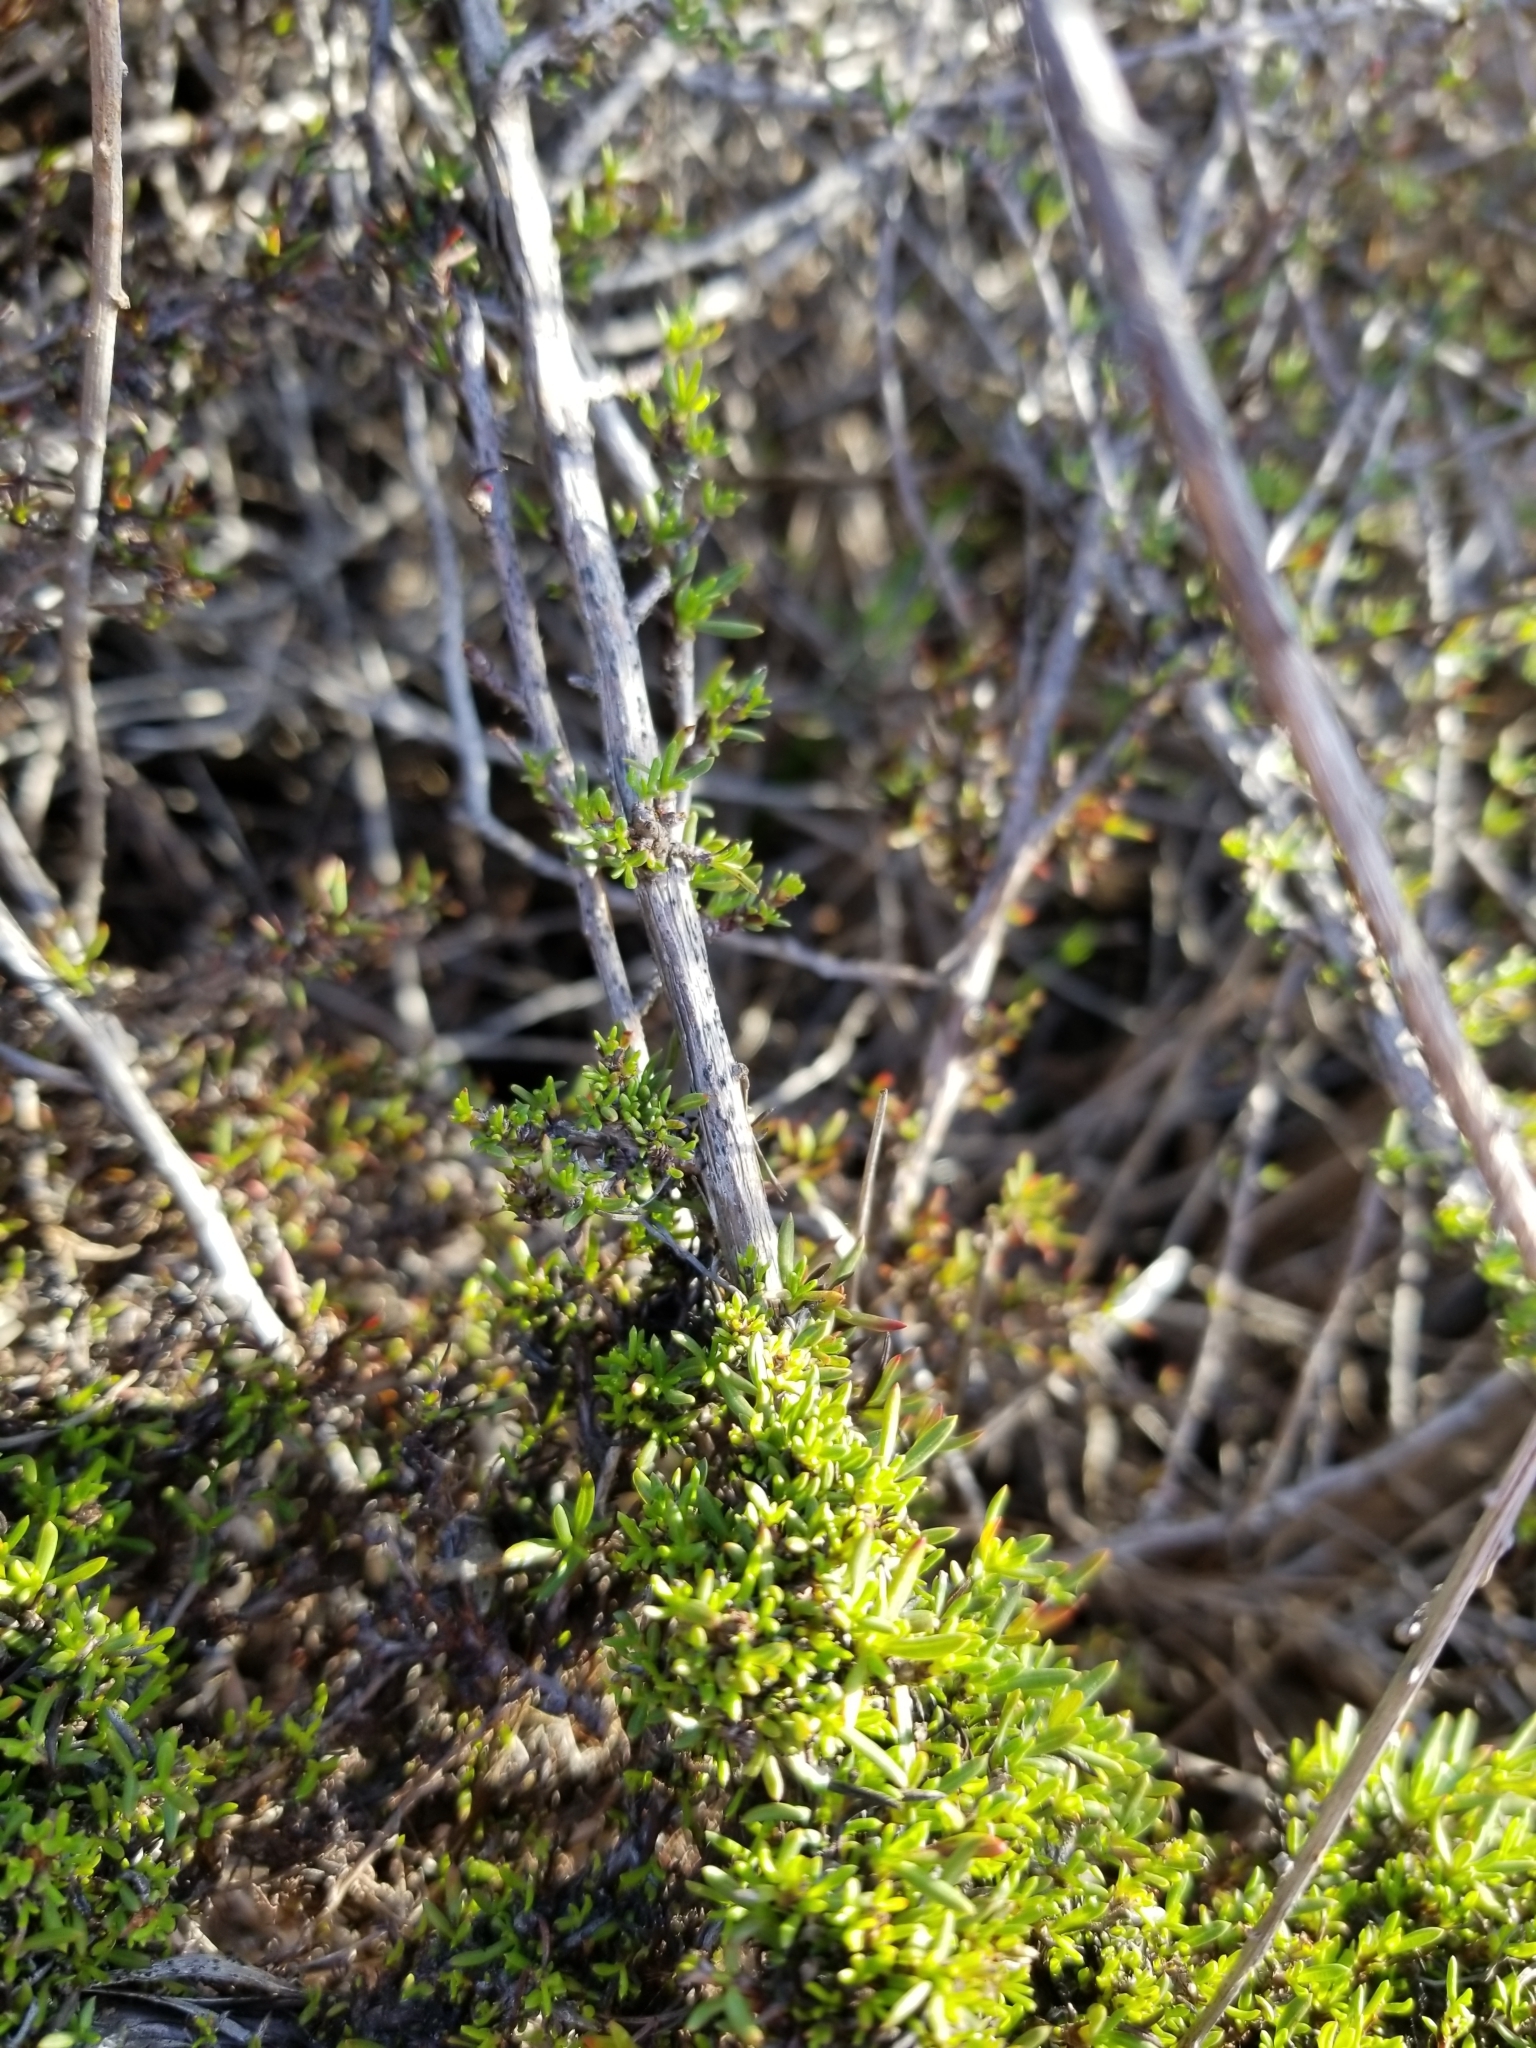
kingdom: Plantae
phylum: Tracheophyta
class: Magnoliopsida
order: Caryophyllales
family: Polygonaceae
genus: Eriogonum
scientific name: Eriogonum fasciculatum
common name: California wild buckwheat
